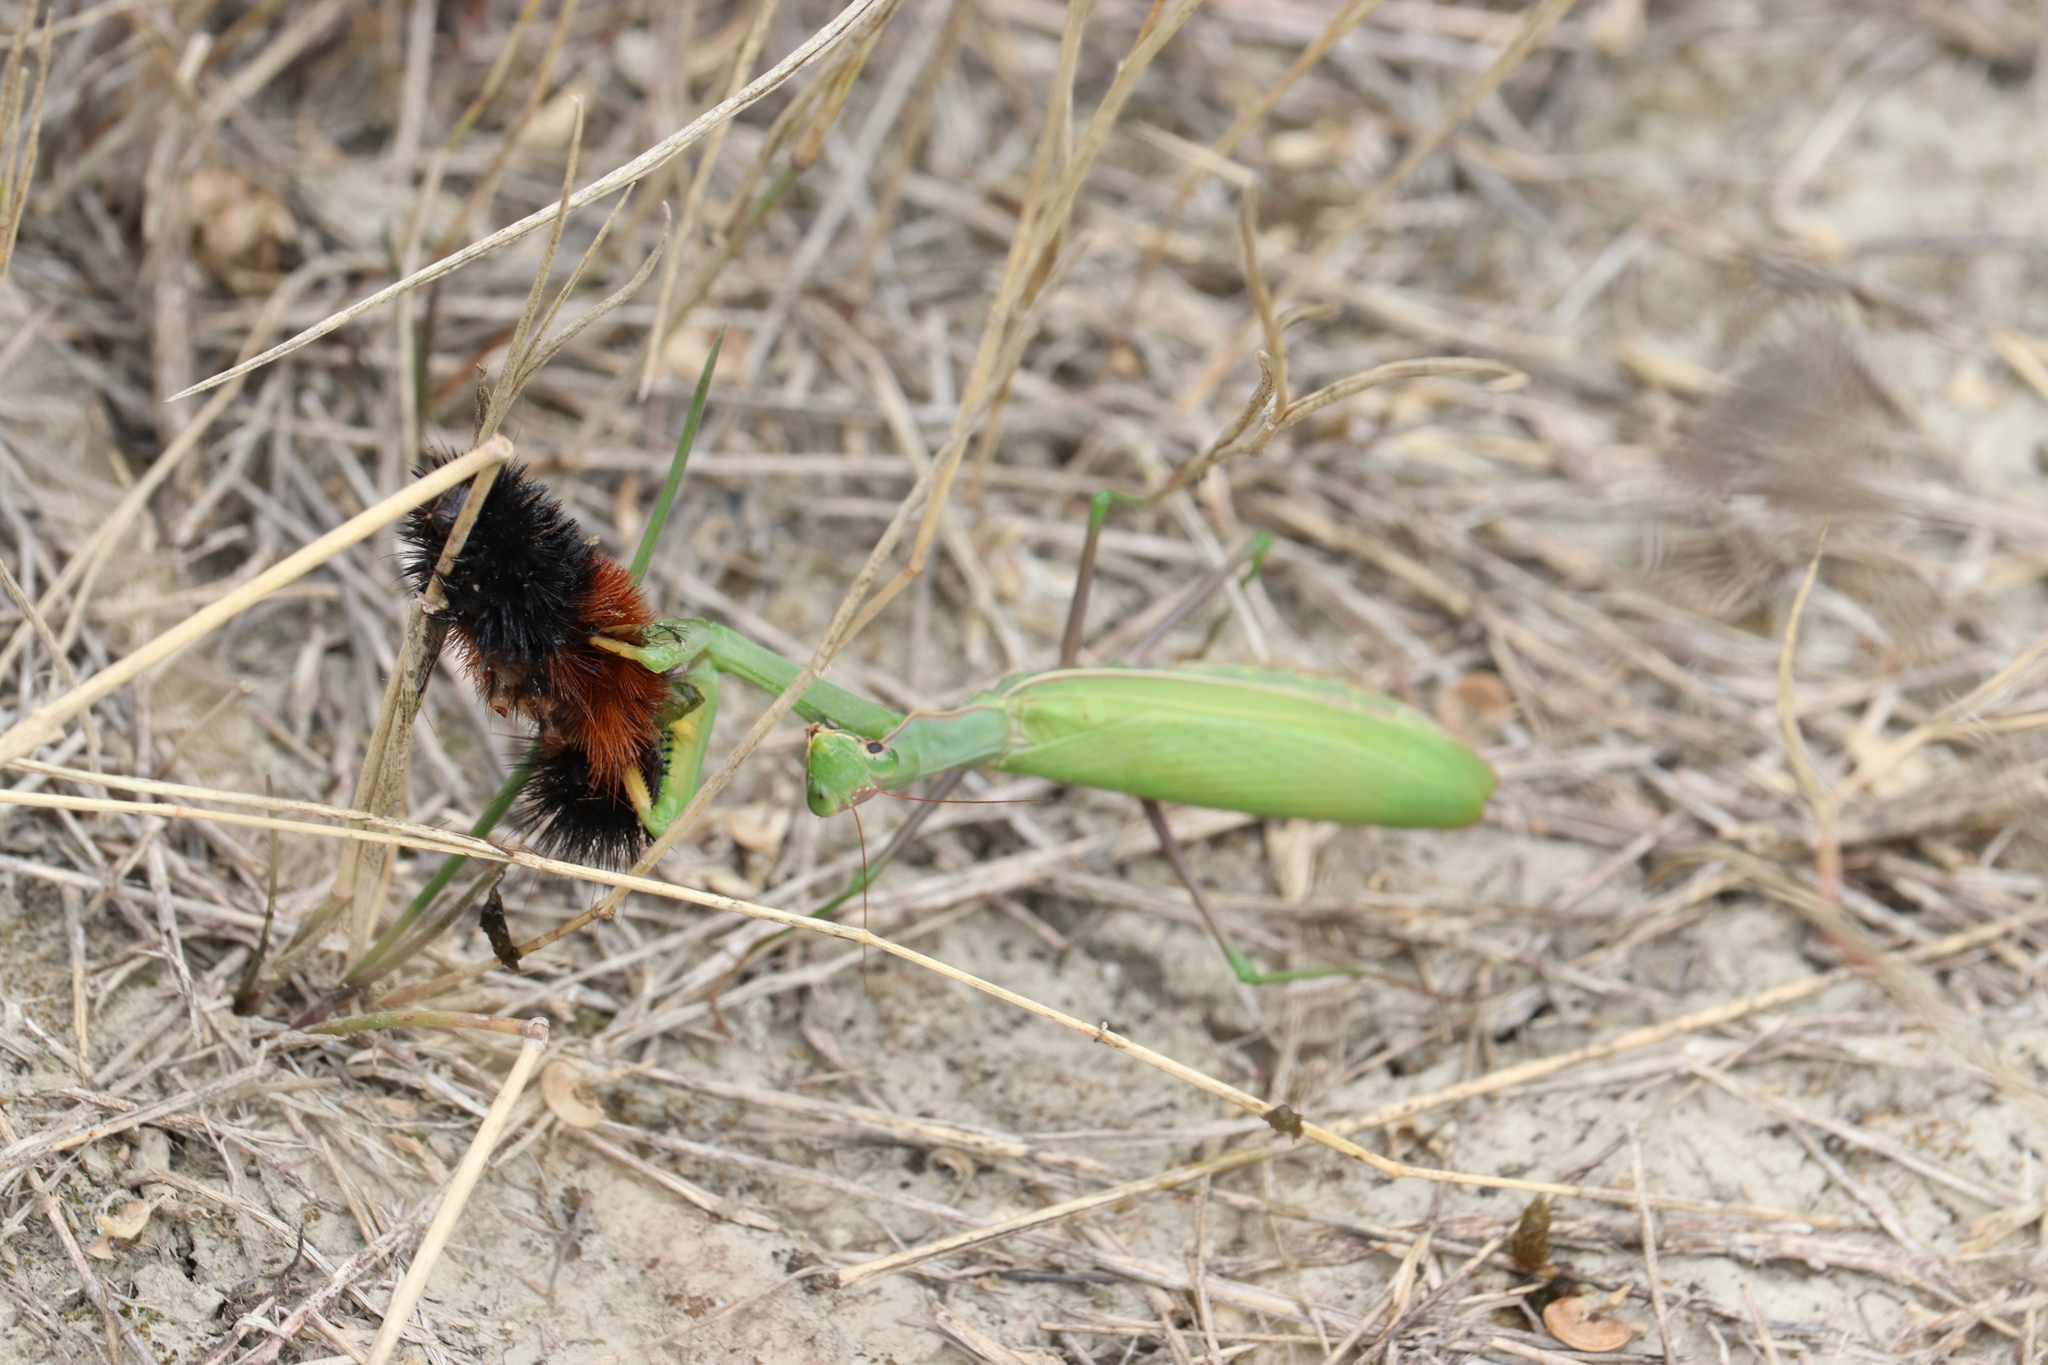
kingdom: Animalia
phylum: Arthropoda
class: Insecta
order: Mantodea
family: Mantidae
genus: Mantis
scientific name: Mantis religiosa
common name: Praying mantis
